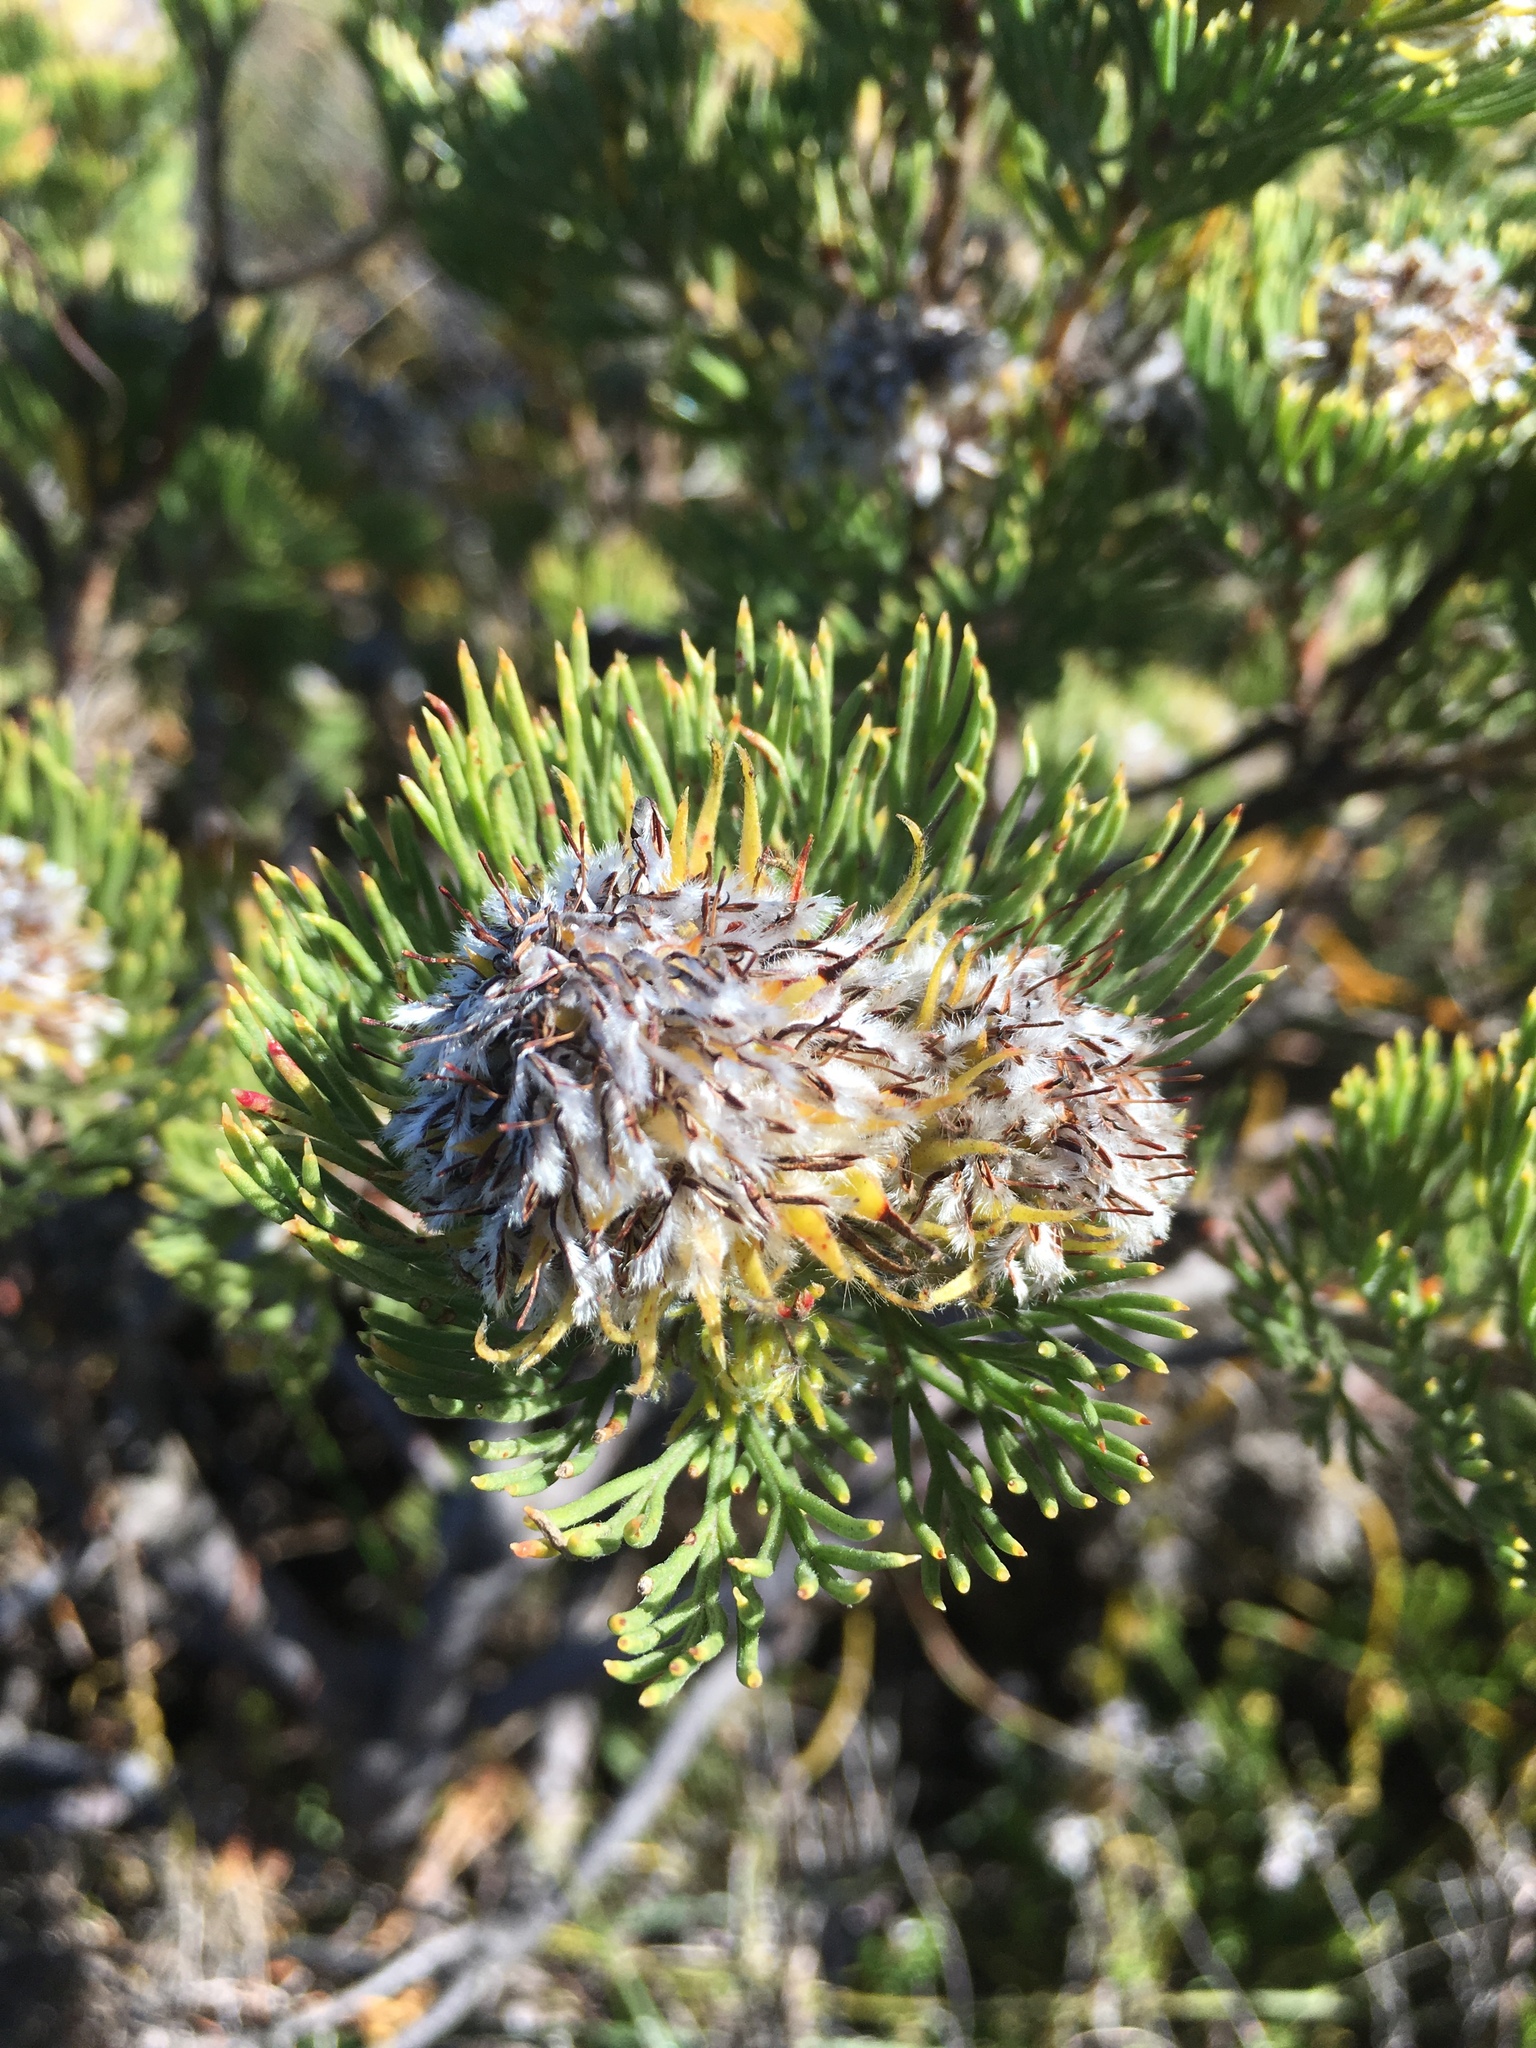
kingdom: Plantae
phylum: Tracheophyta
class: Magnoliopsida
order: Proteales
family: Proteaceae
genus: Serruria
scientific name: Serruria villosa
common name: Golden spiderhead
